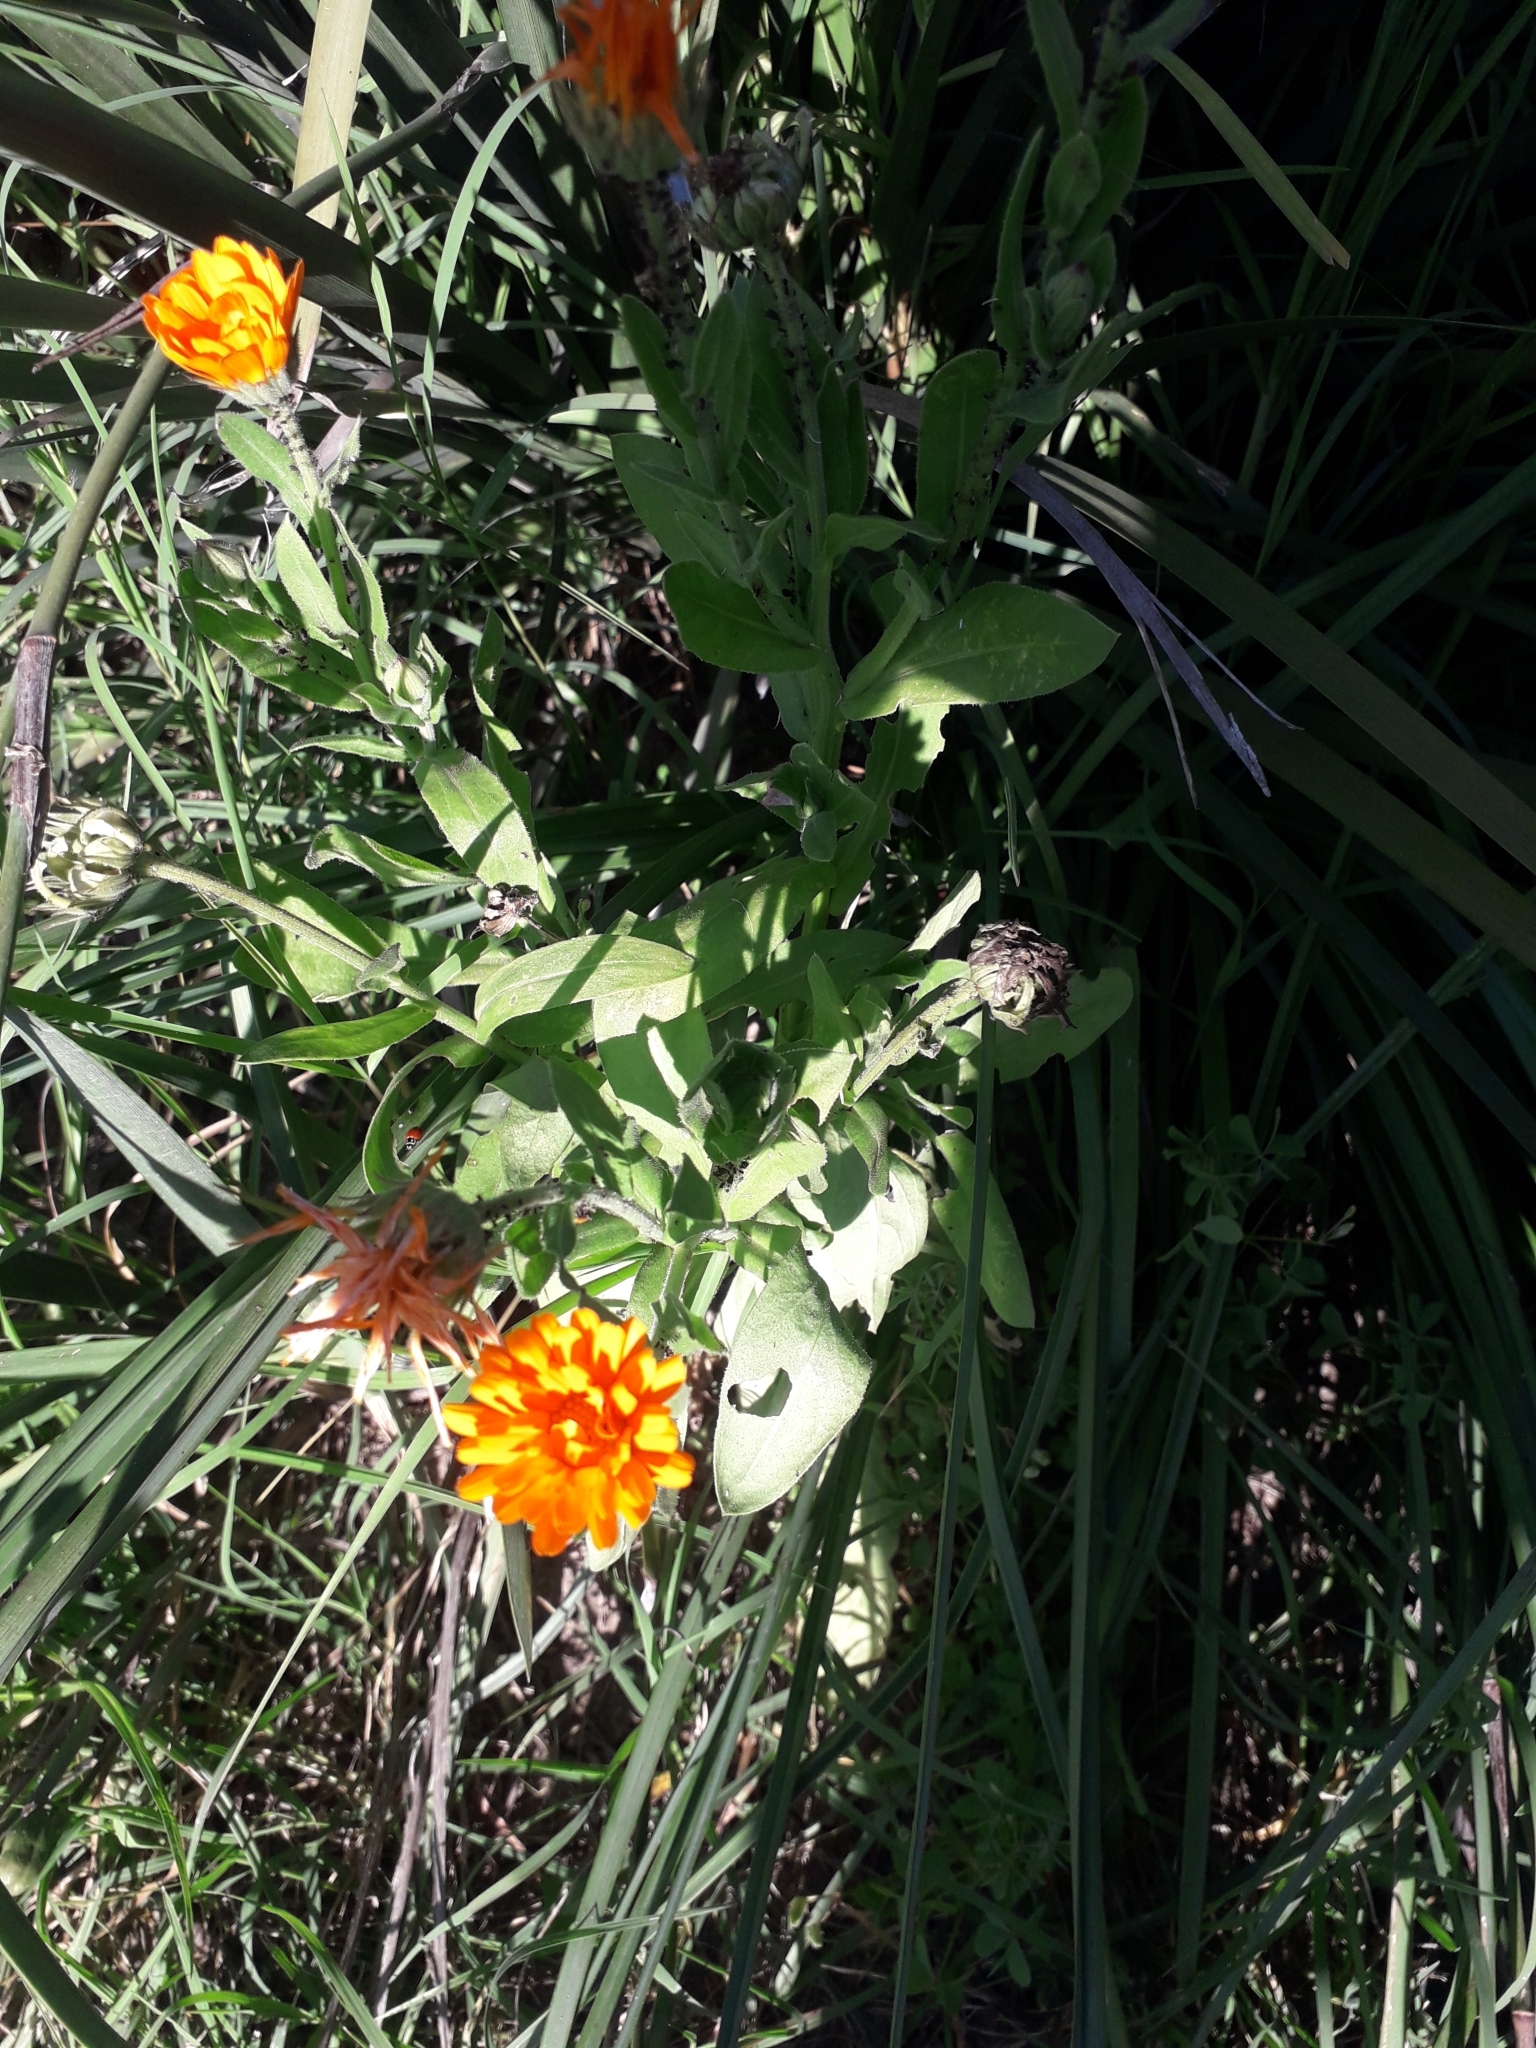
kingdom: Plantae
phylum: Tracheophyta
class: Magnoliopsida
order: Asterales
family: Asteraceae
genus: Calendula
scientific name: Calendula officinalis
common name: Pot marigold
